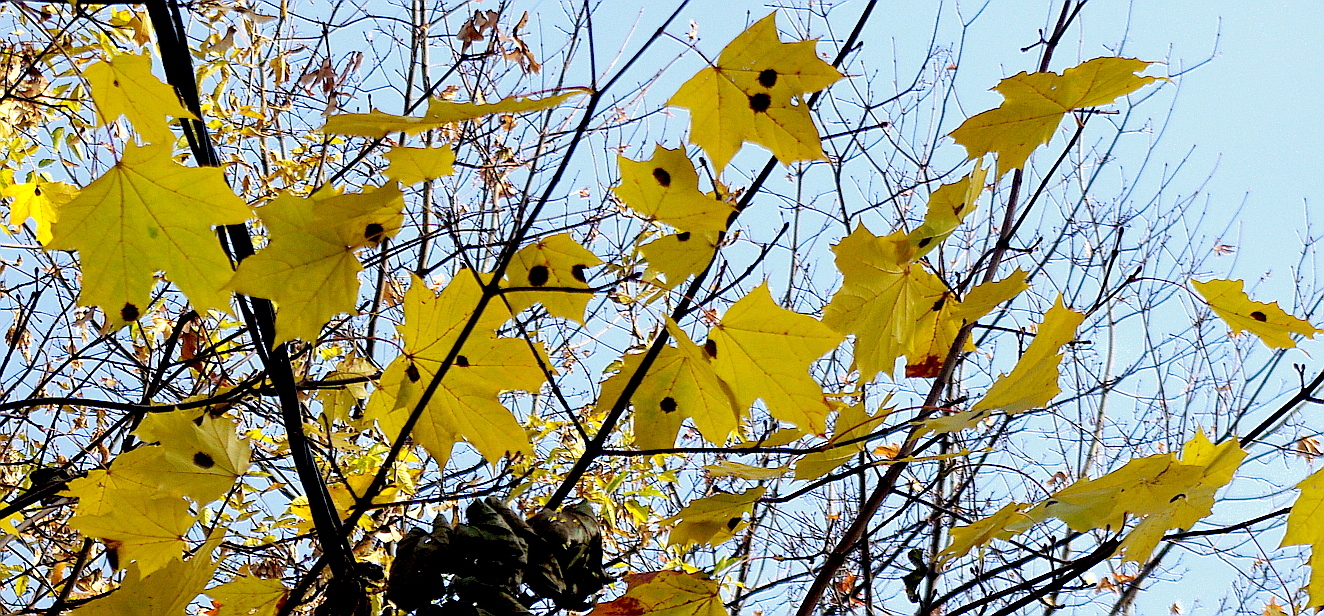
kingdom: Fungi
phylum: Ascomycota
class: Leotiomycetes
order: Rhytismatales
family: Rhytismataceae
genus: Rhytisma
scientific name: Rhytisma acerinum
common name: European tar spot
